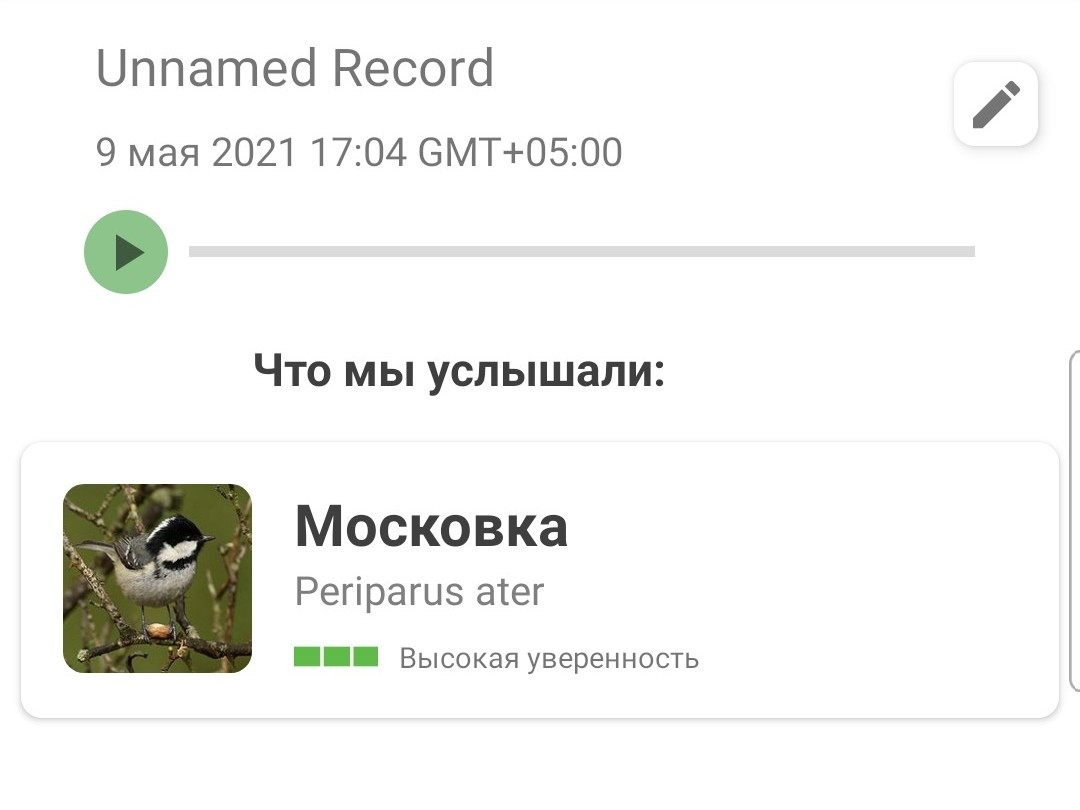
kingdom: Animalia
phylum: Chordata
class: Aves
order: Passeriformes
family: Paridae
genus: Periparus
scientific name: Periparus ater
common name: Coal tit
